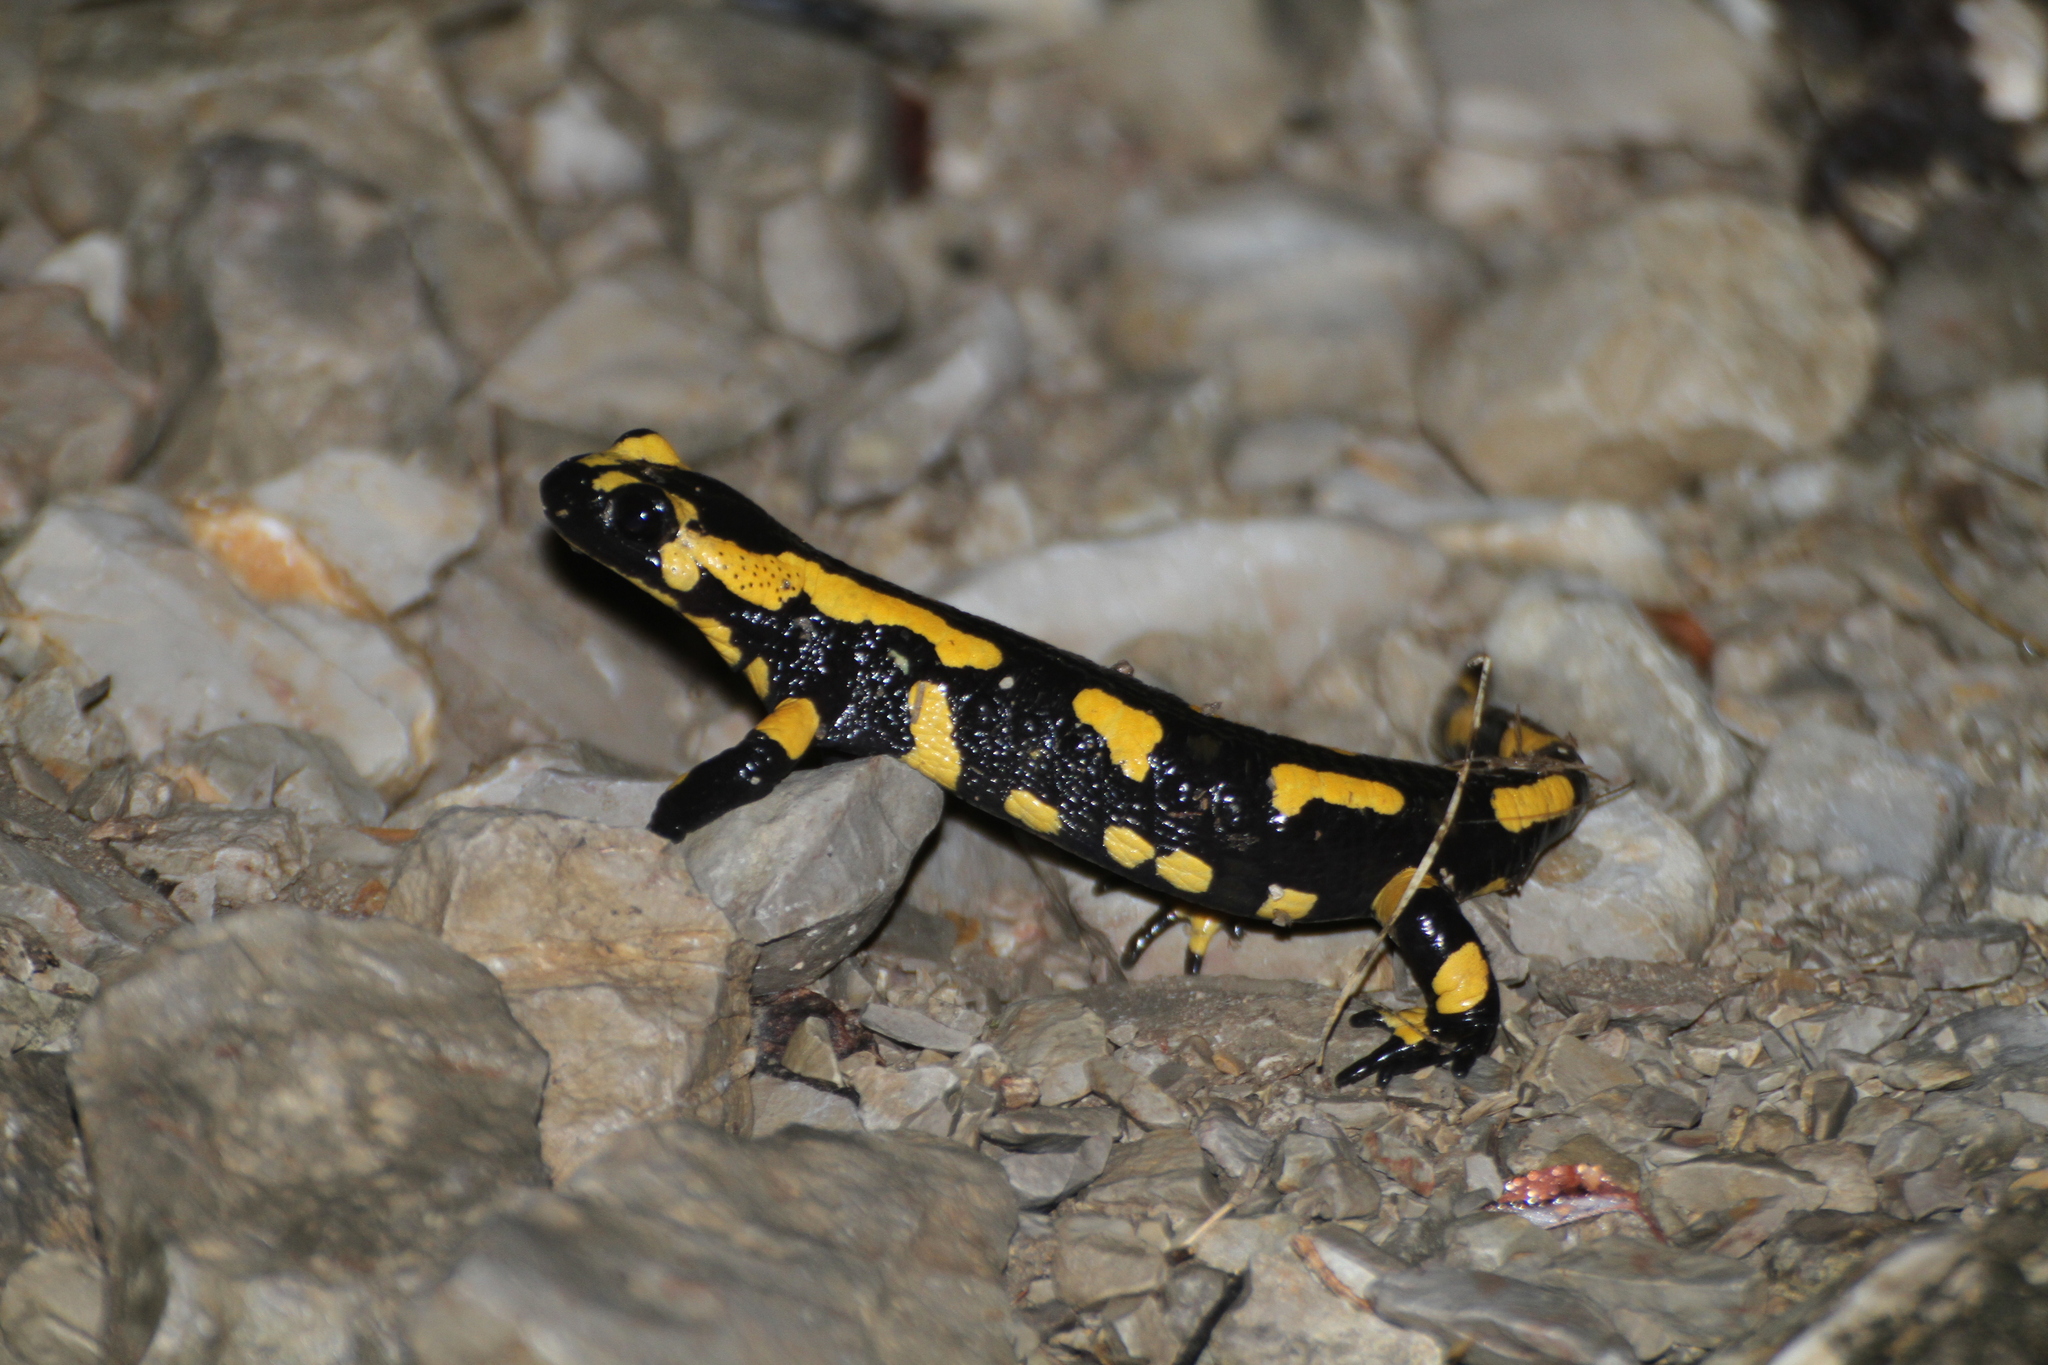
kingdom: Animalia
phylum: Chordata
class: Amphibia
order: Caudata
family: Salamandridae
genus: Salamandra
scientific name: Salamandra salamandra
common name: Fire salamander
